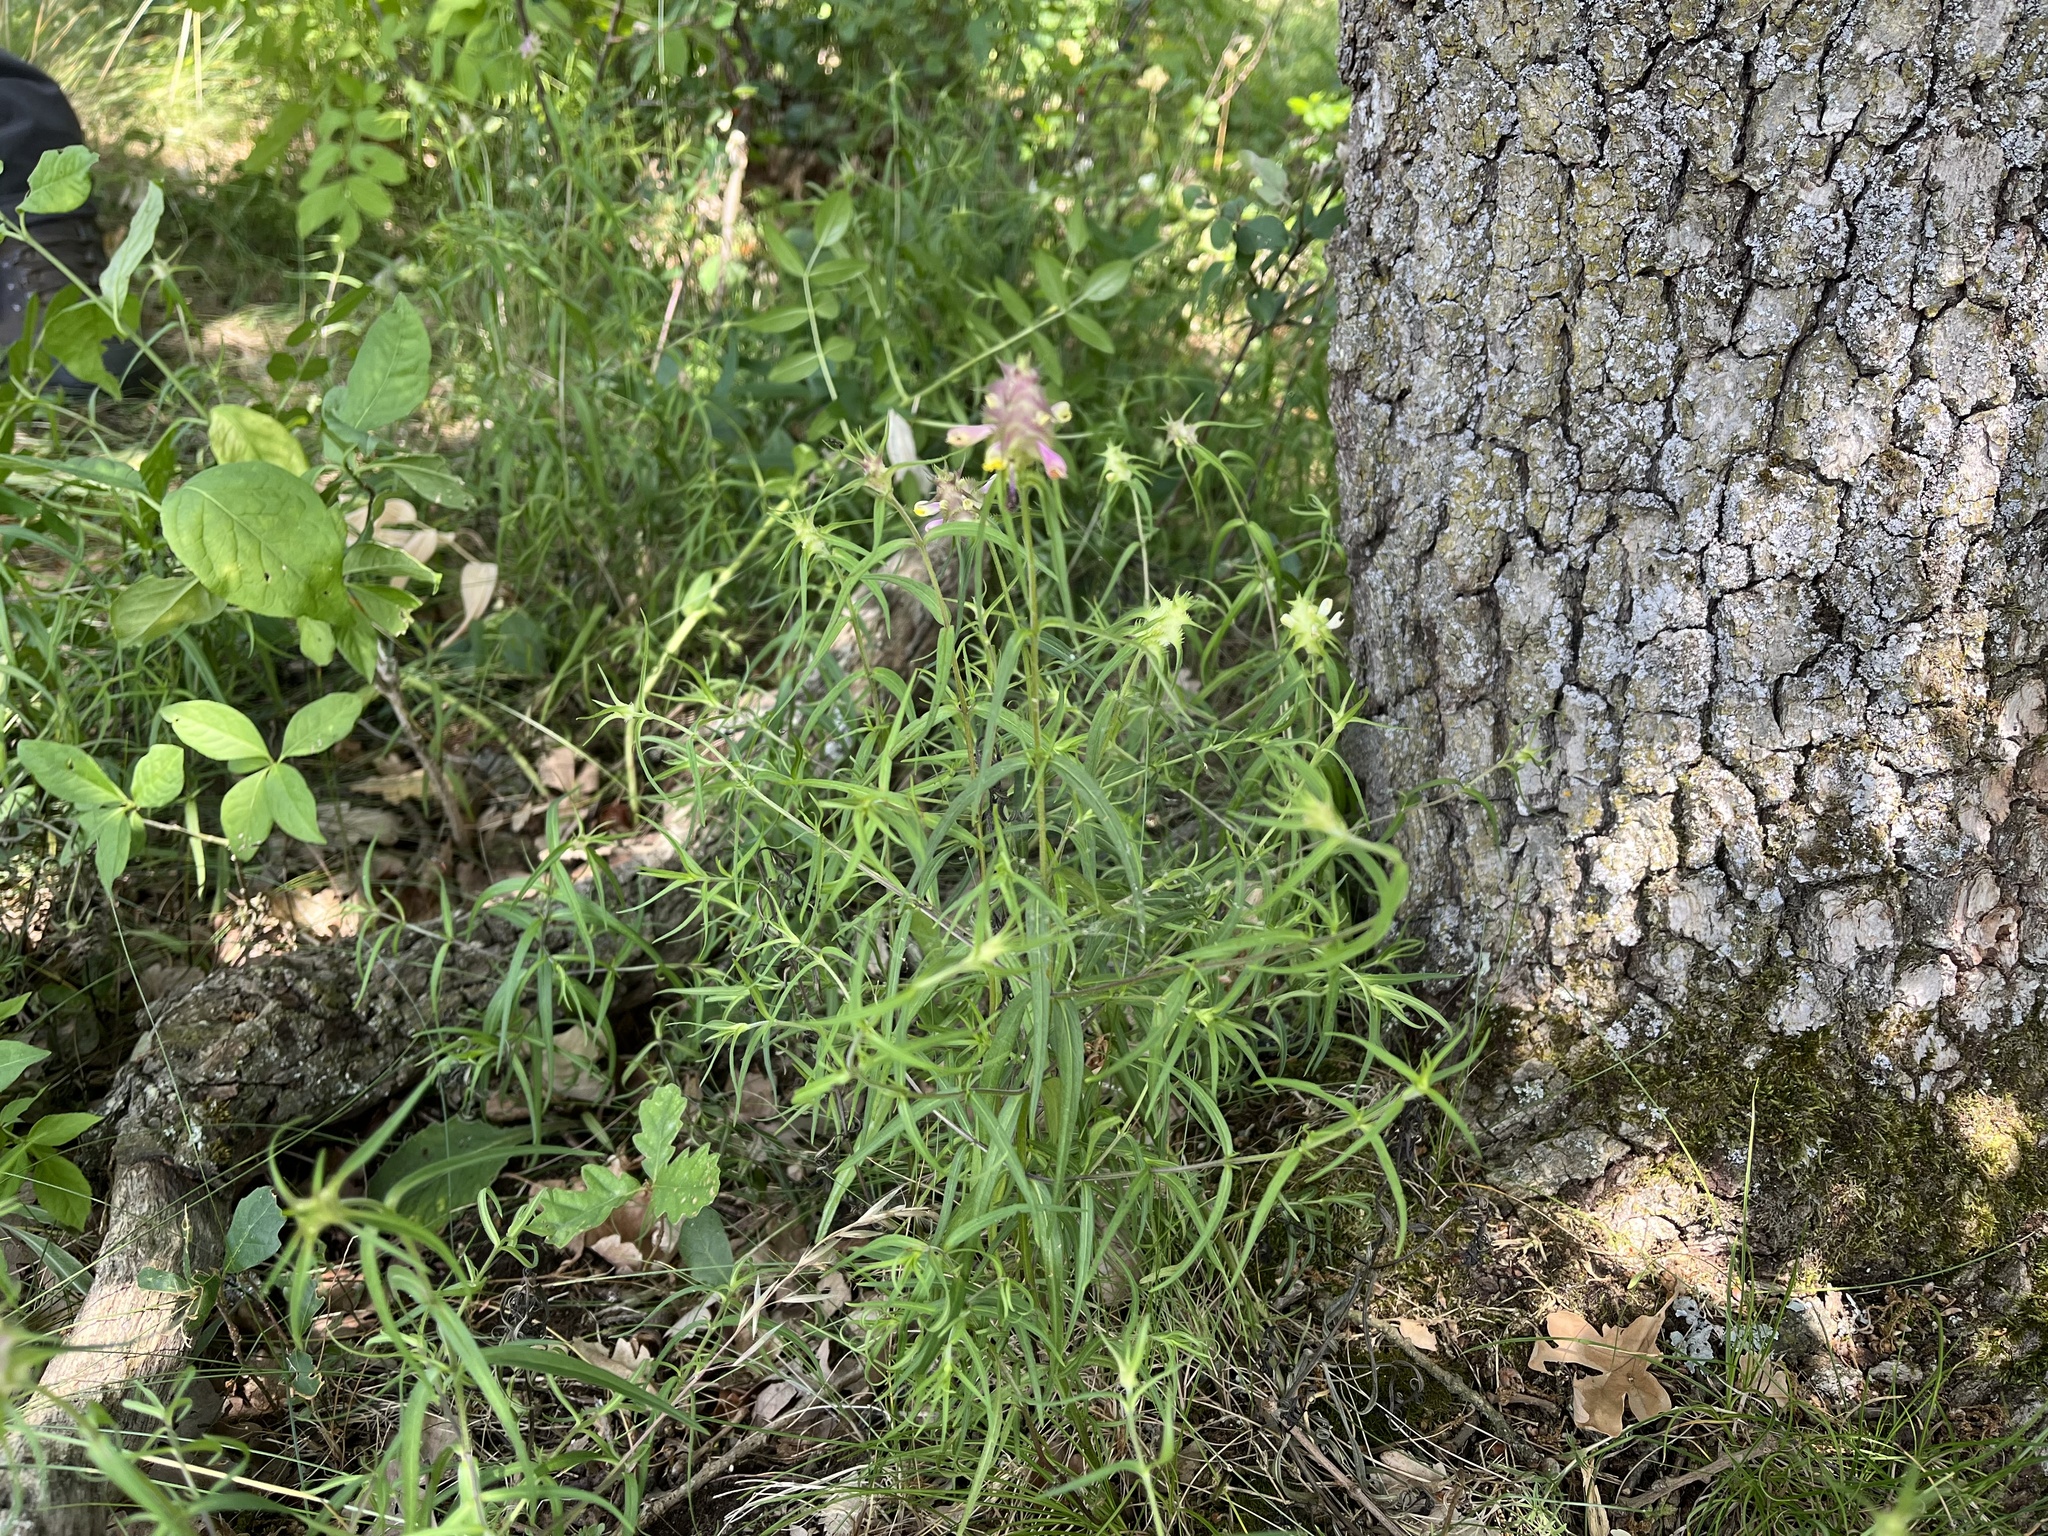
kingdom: Plantae
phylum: Tracheophyta
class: Magnoliopsida
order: Lamiales
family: Orobanchaceae
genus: Melampyrum
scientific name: Melampyrum cristatum
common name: Crested cow-wheat
